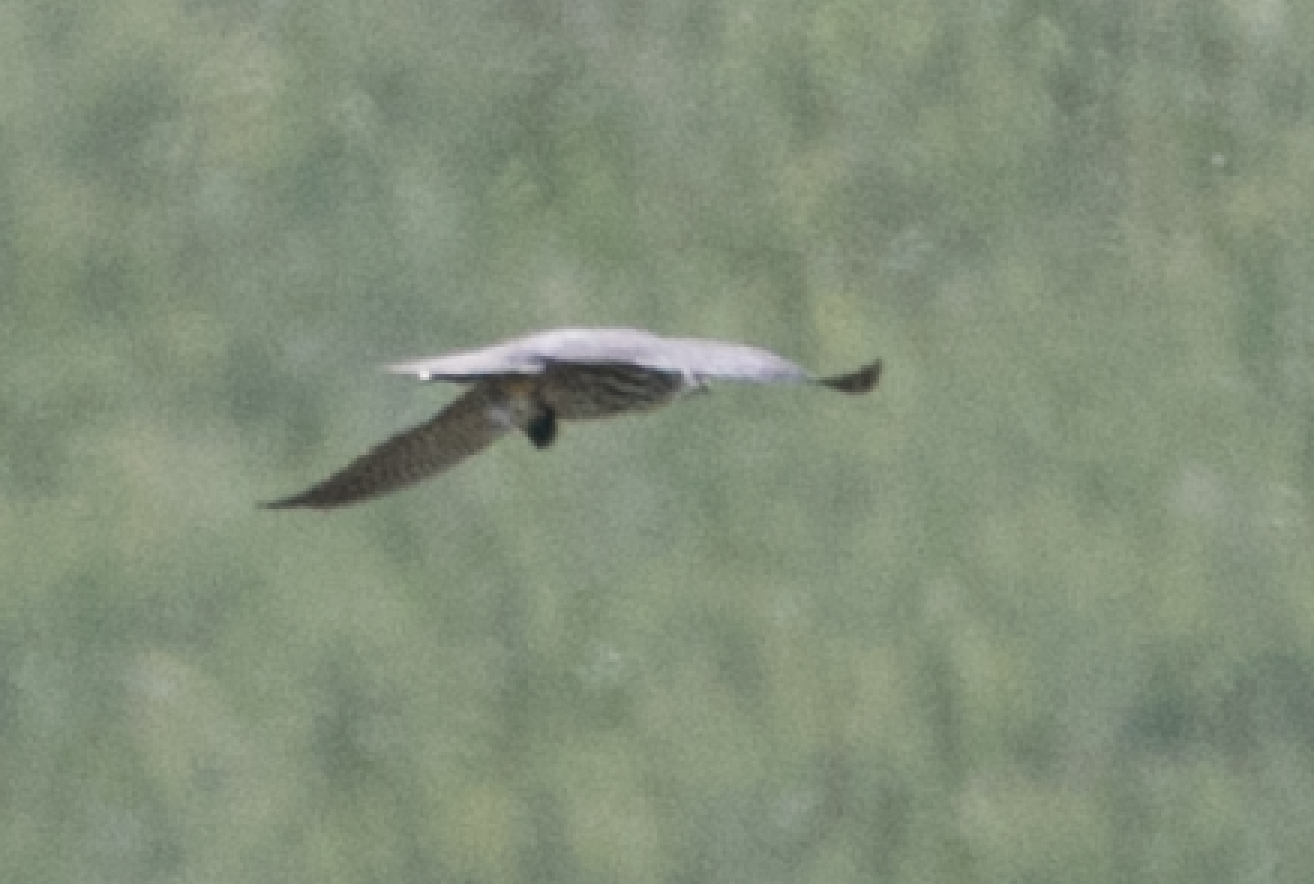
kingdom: Animalia
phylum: Chordata
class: Aves
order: Falconiformes
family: Falconidae
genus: Falco
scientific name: Falco subbuteo
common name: Eurasian hobby
